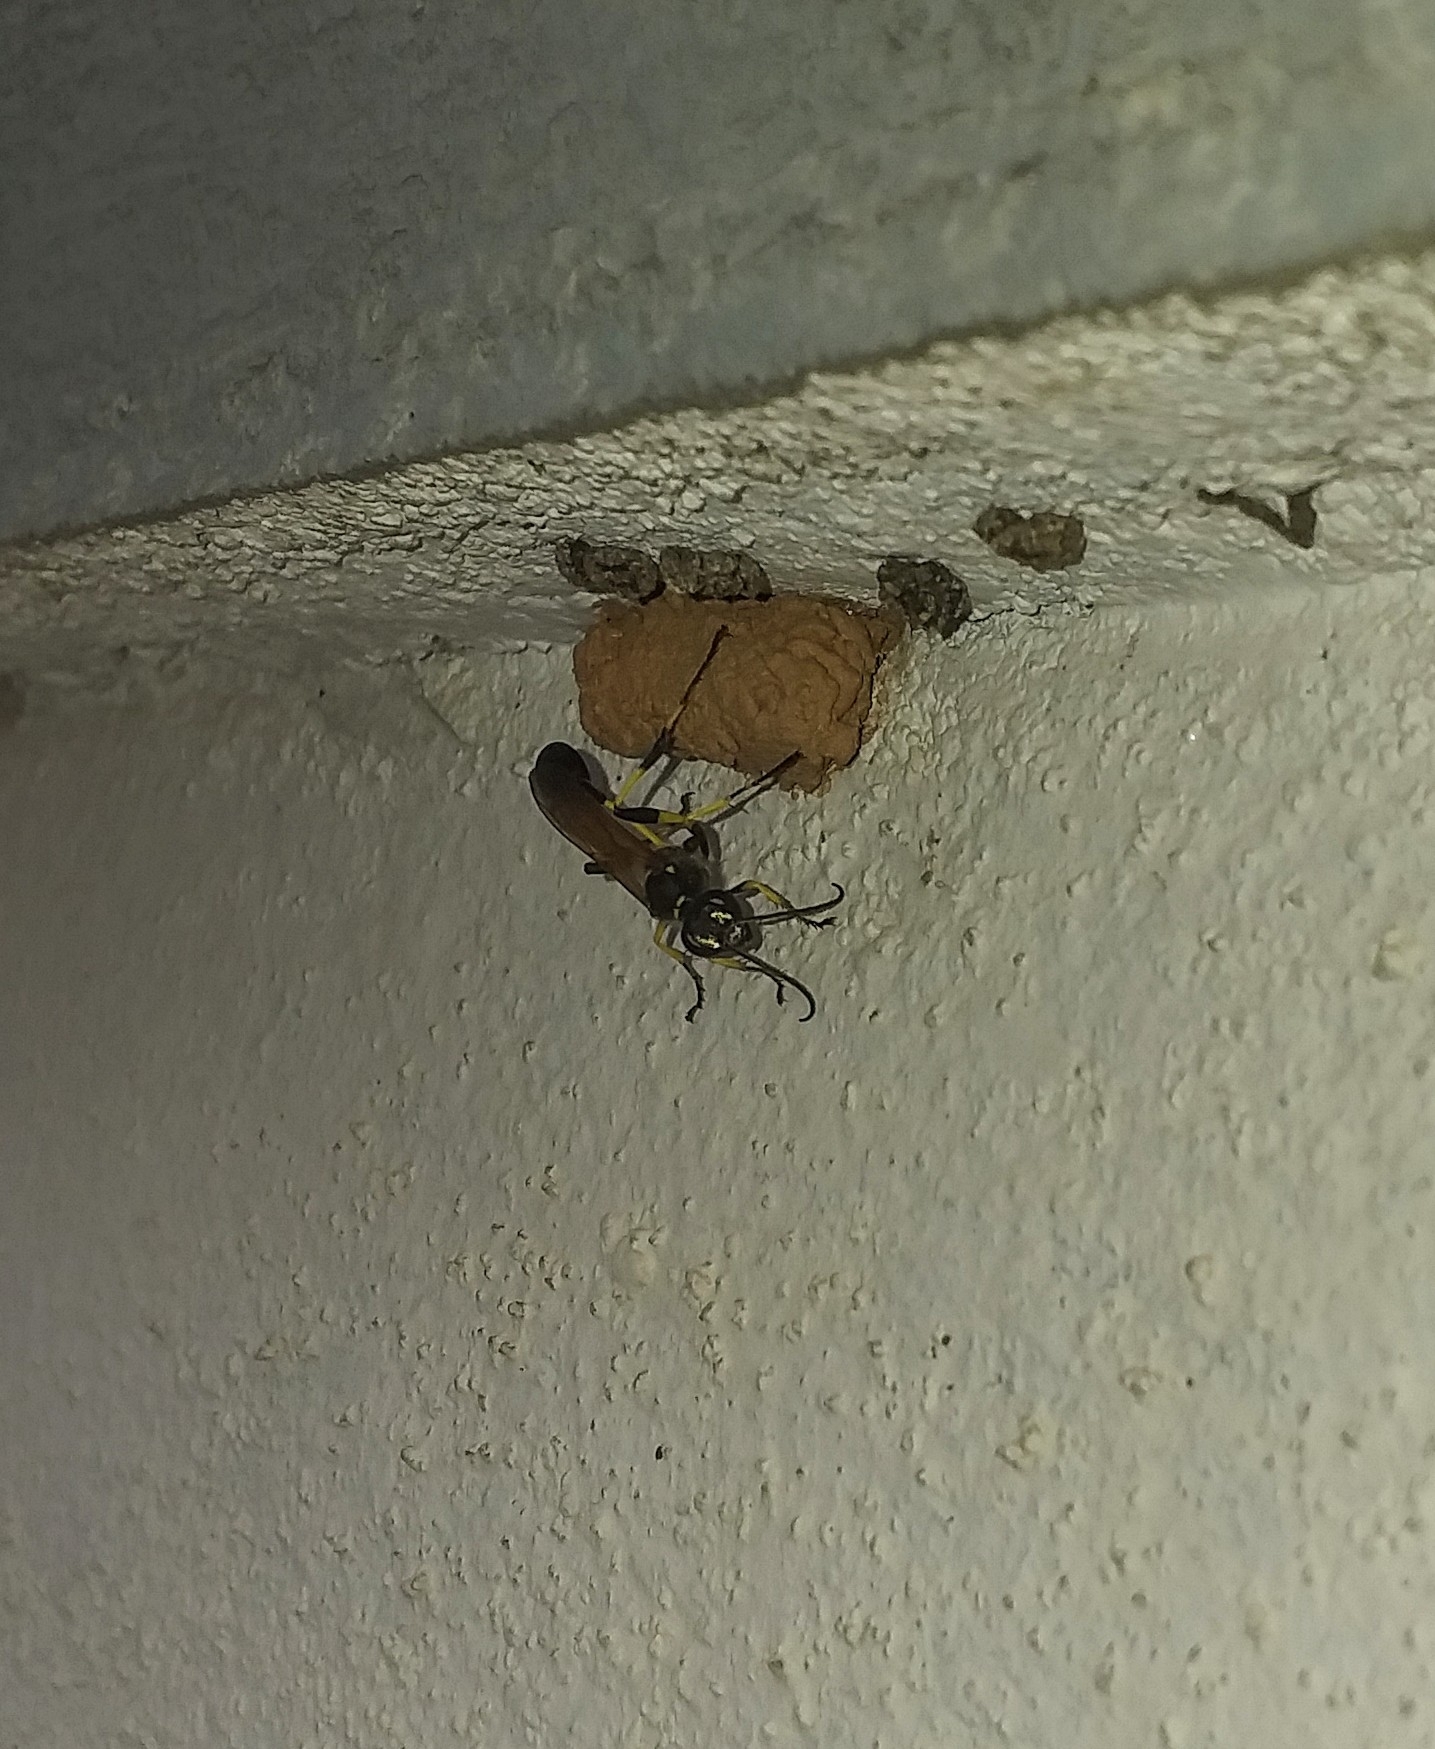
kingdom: Animalia
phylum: Arthropoda
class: Insecta
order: Hymenoptera
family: Sphecidae
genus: Sceliphron
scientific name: Sceliphron madraspatanum
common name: Mud dauber
